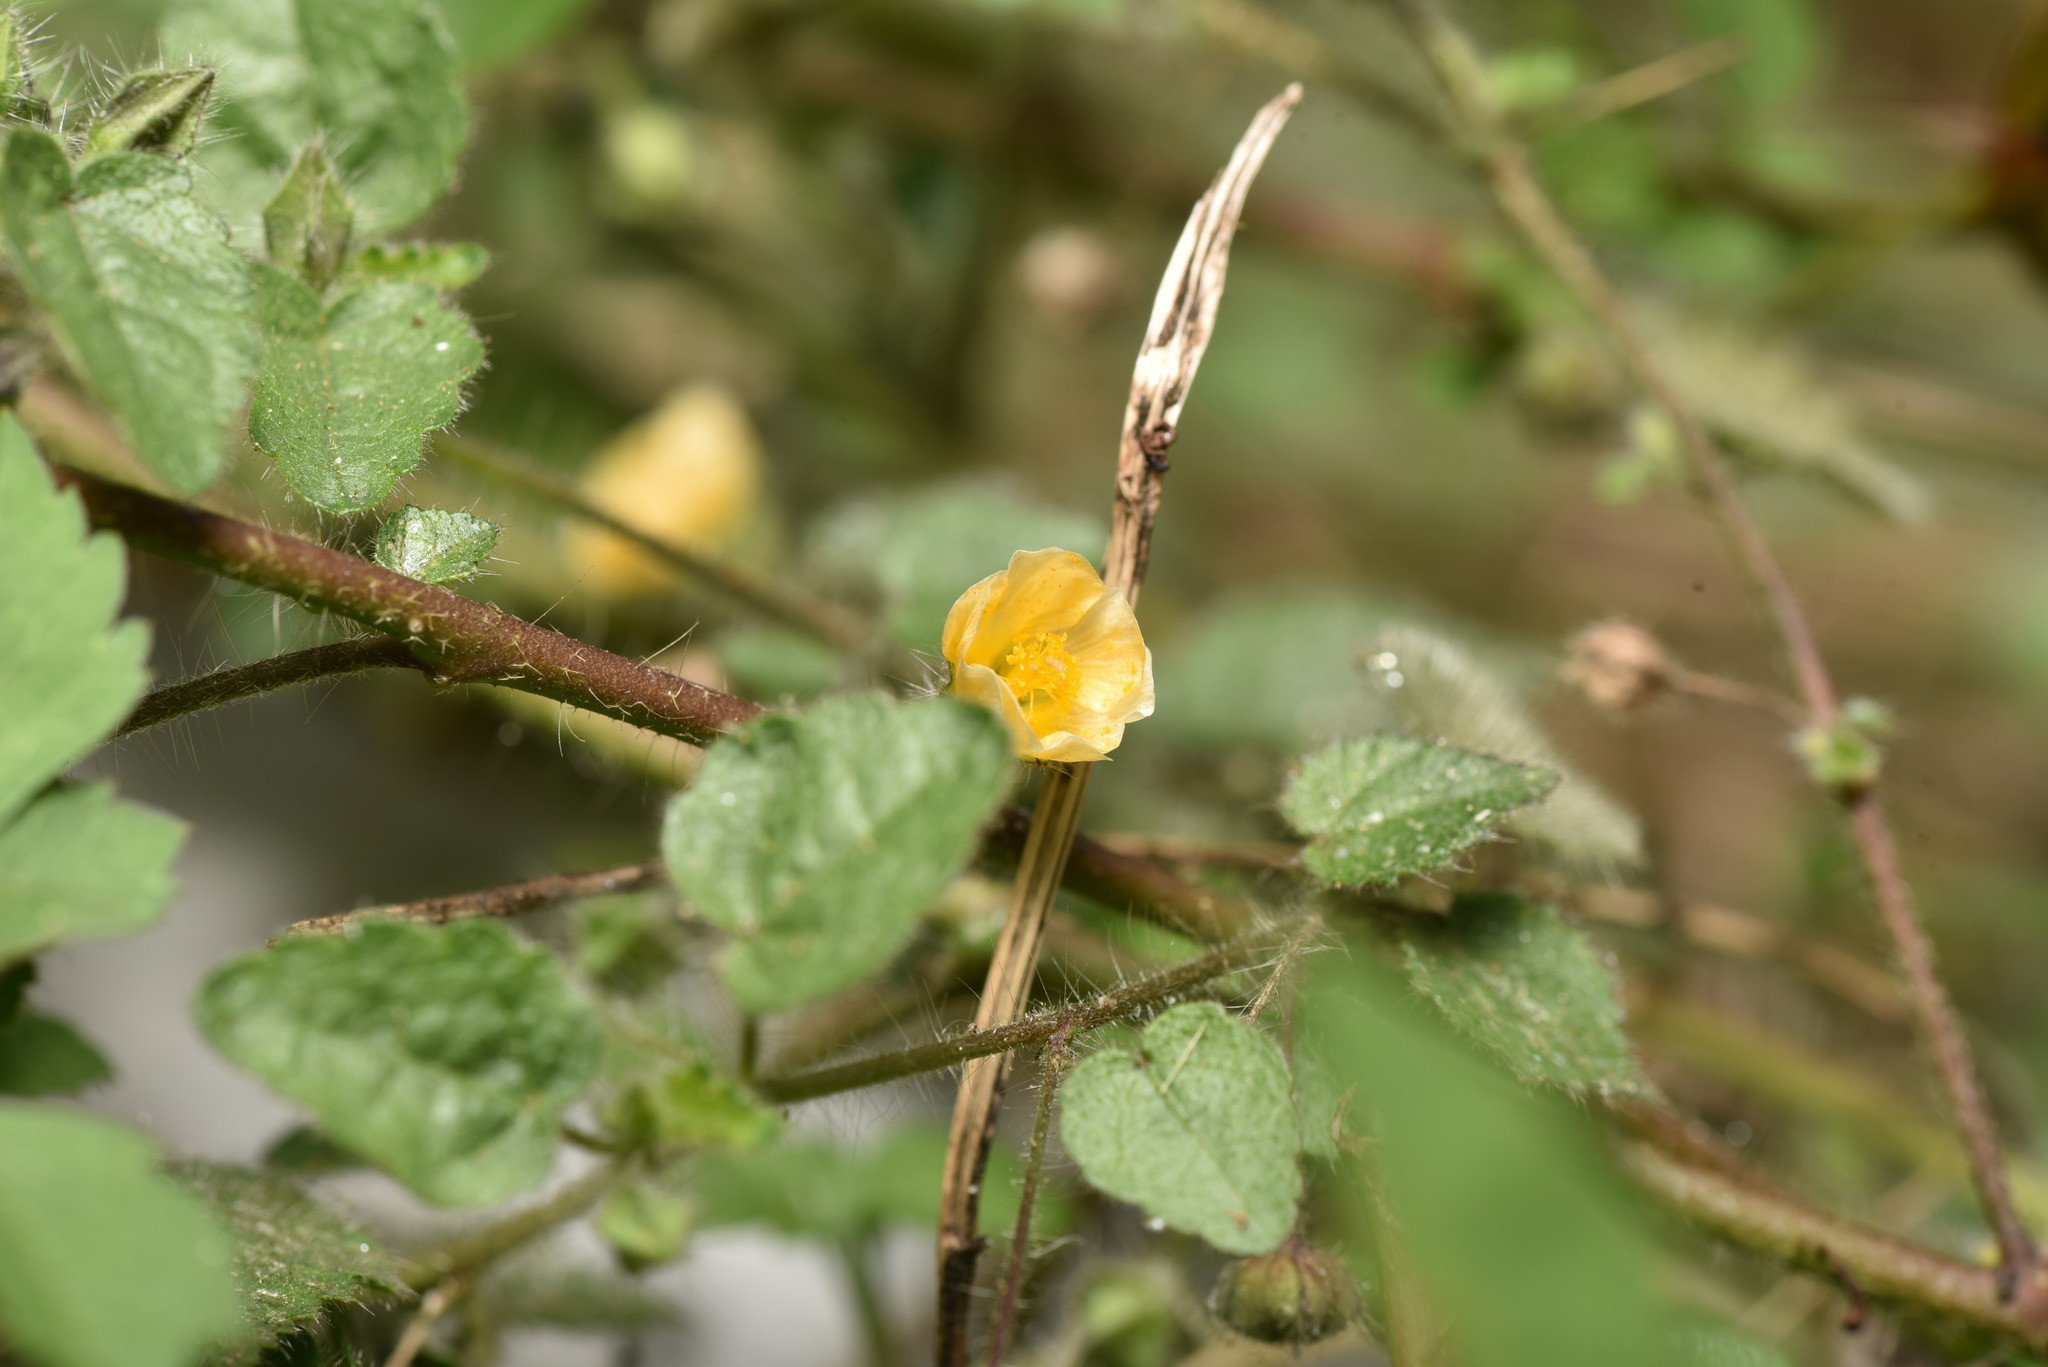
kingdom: Plantae
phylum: Tracheophyta
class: Magnoliopsida
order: Malvales
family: Malvaceae
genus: Sida
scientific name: Sida cordata
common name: Long-stalk sida
